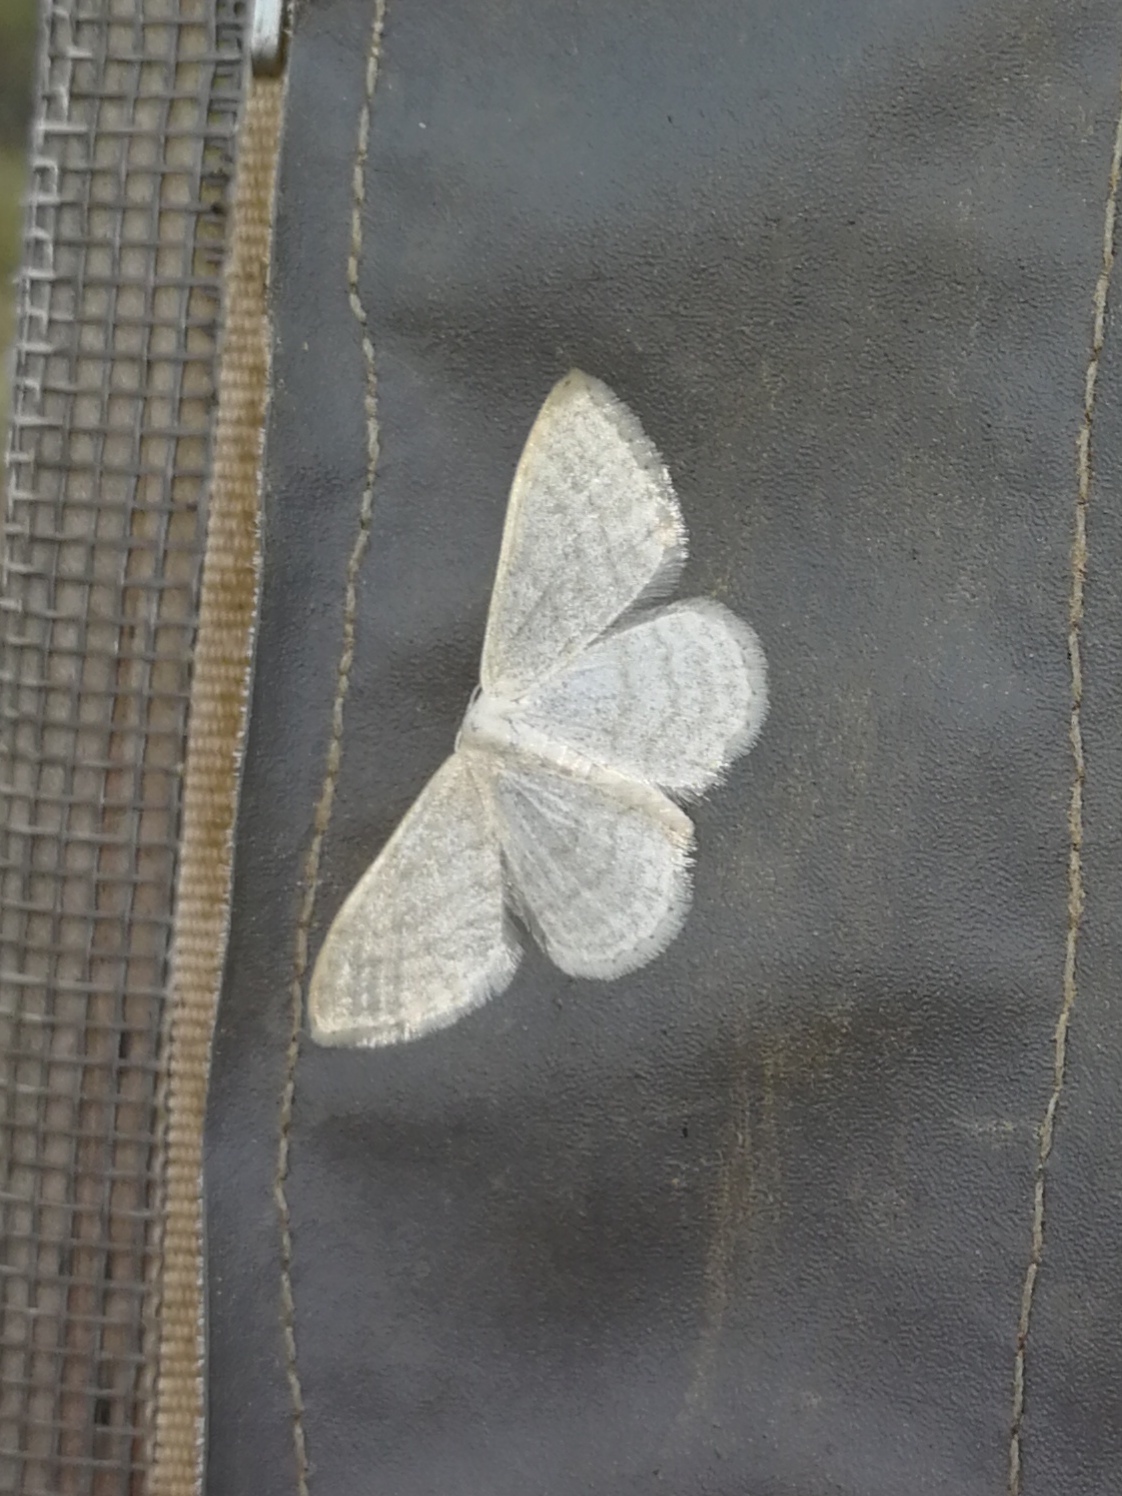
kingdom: Animalia
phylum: Arthropoda
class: Insecta
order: Lepidoptera
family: Geometridae
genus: Idaea
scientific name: Idaea subsericeata
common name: Satin wave
